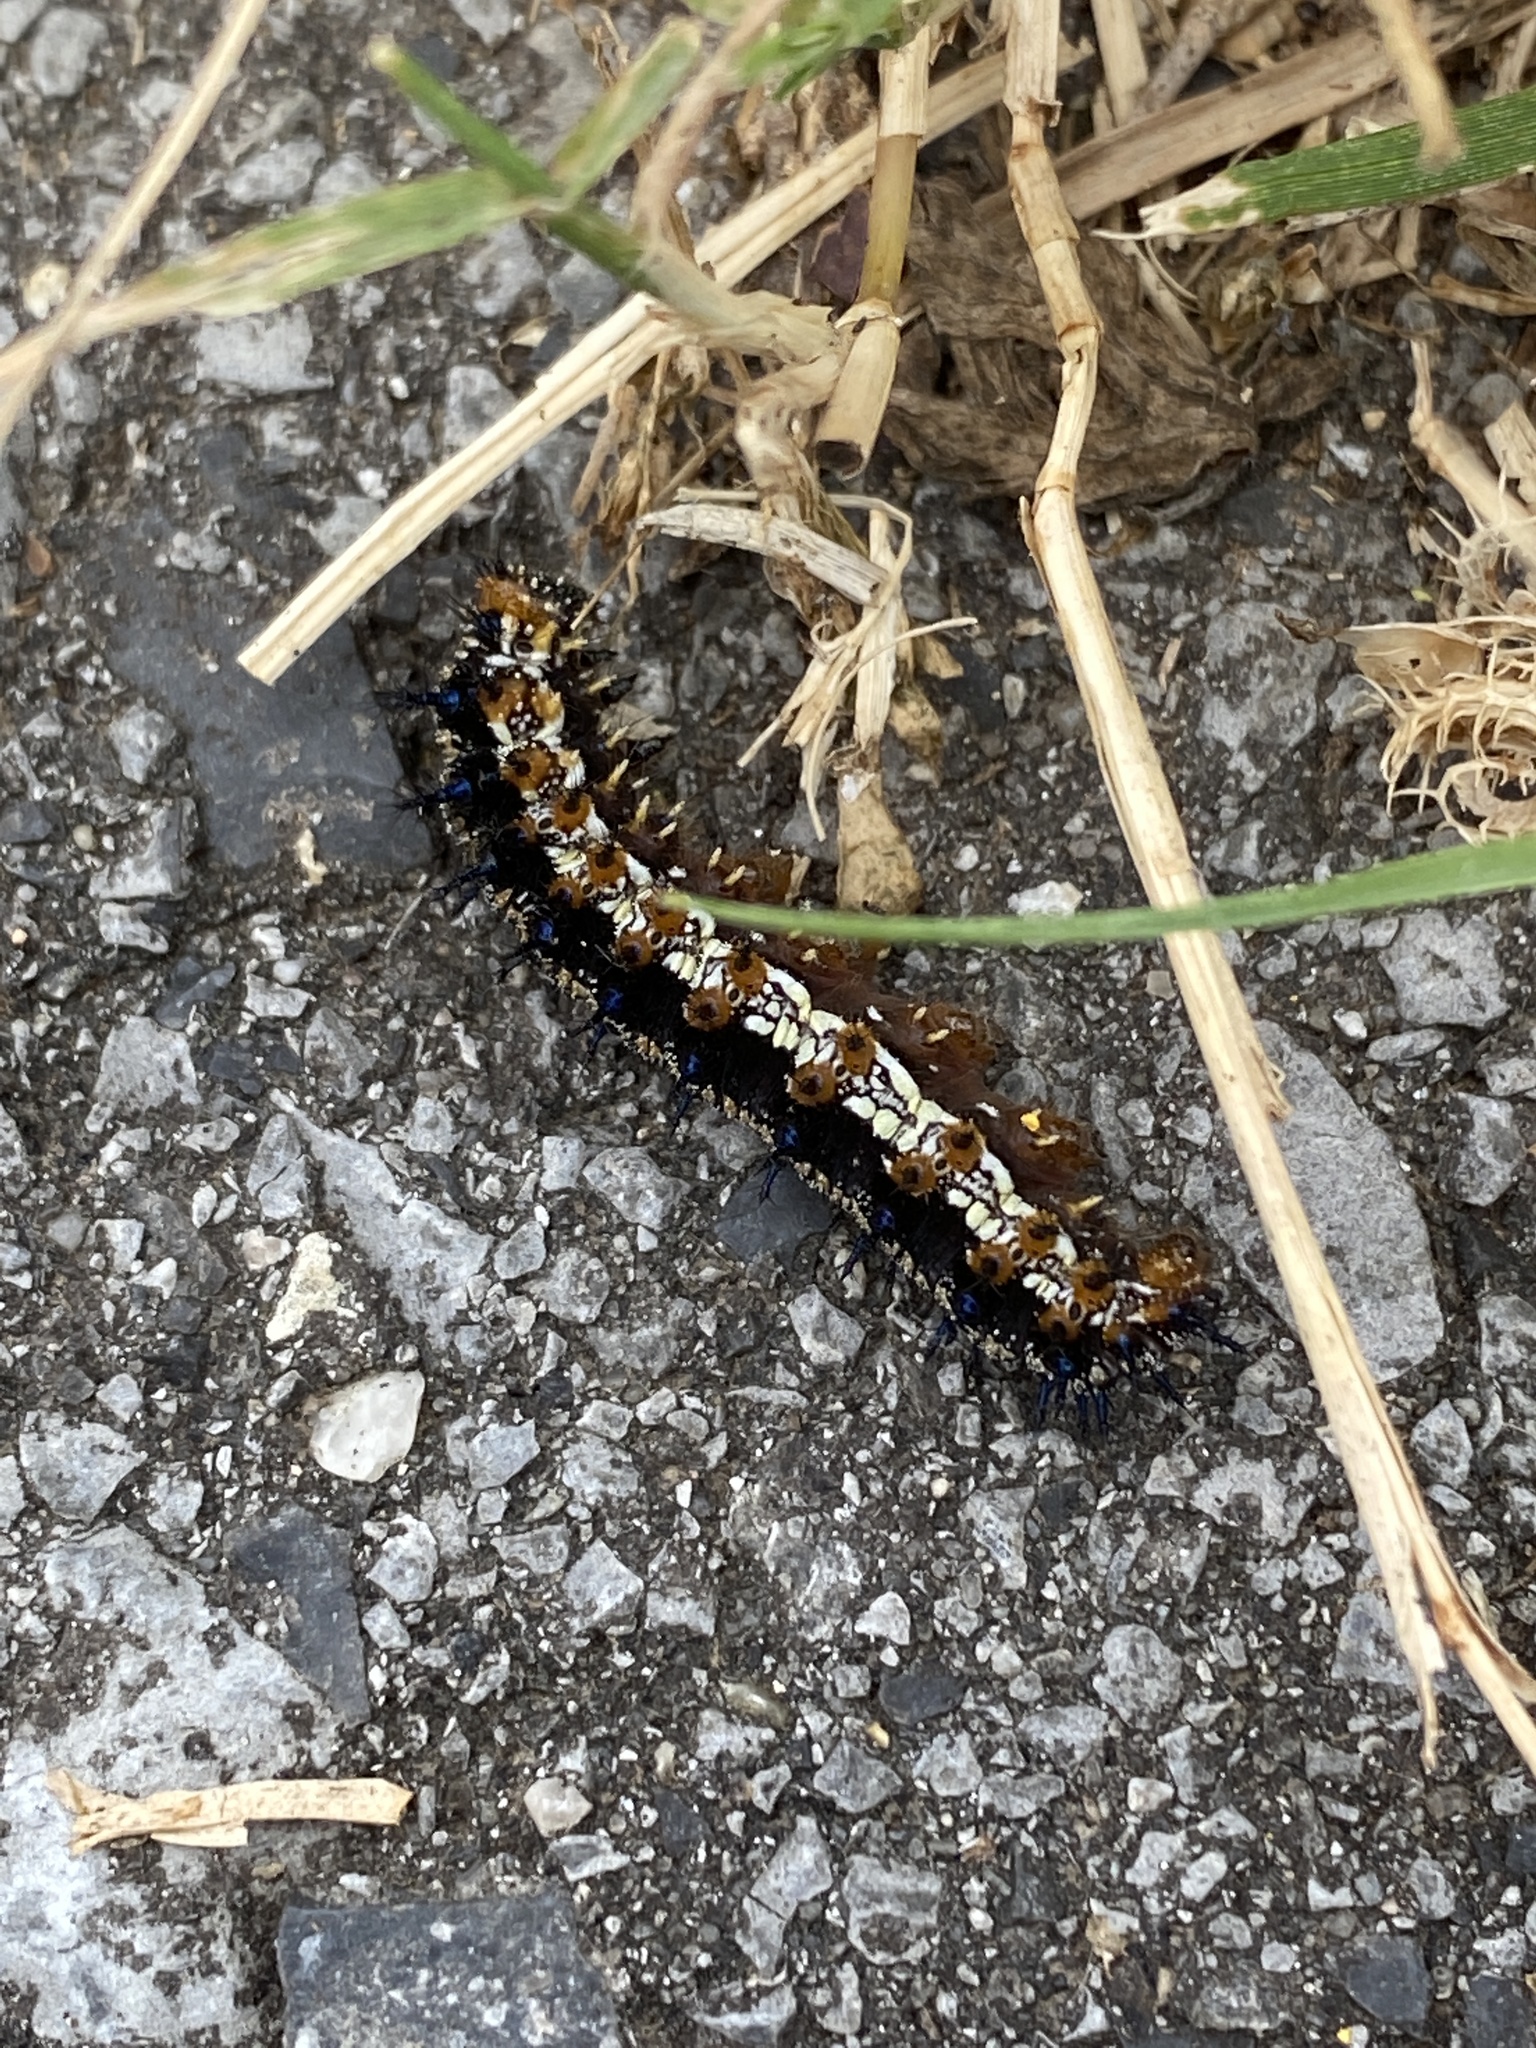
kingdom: Animalia
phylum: Arthropoda
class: Insecta
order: Lepidoptera
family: Nymphalidae
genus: Junonia
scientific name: Junonia coenia
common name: Common buckeye
